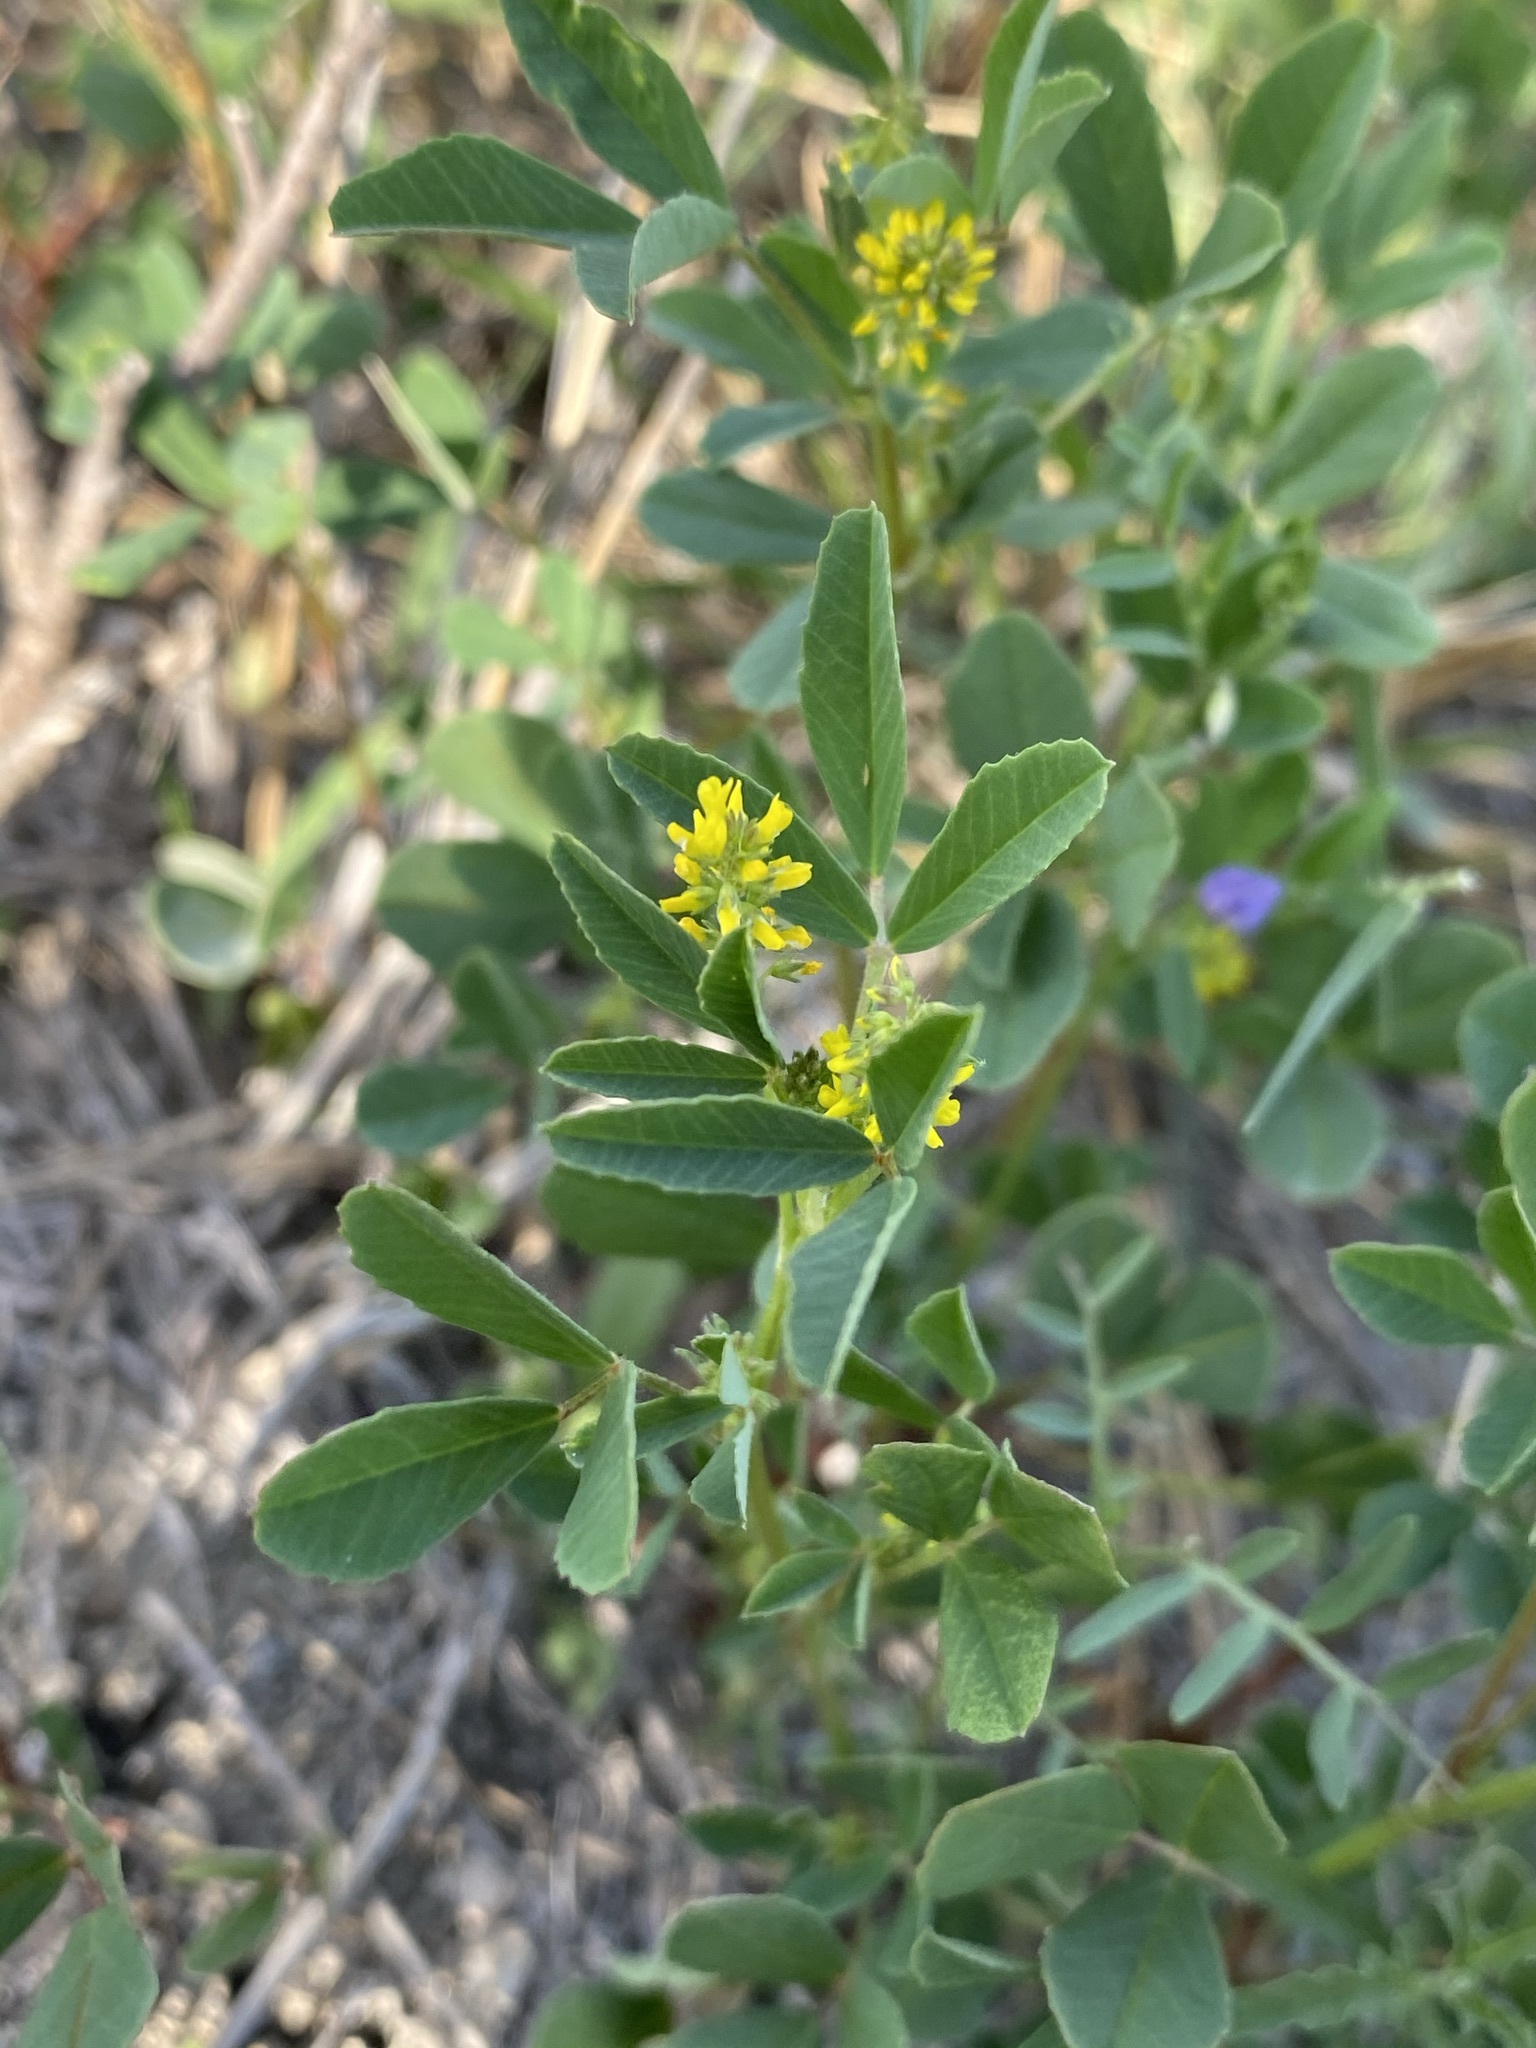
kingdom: Plantae
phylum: Tracheophyta
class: Magnoliopsida
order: Fabales
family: Fabaceae
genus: Melilotus
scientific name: Melilotus indicus
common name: Small melilot
